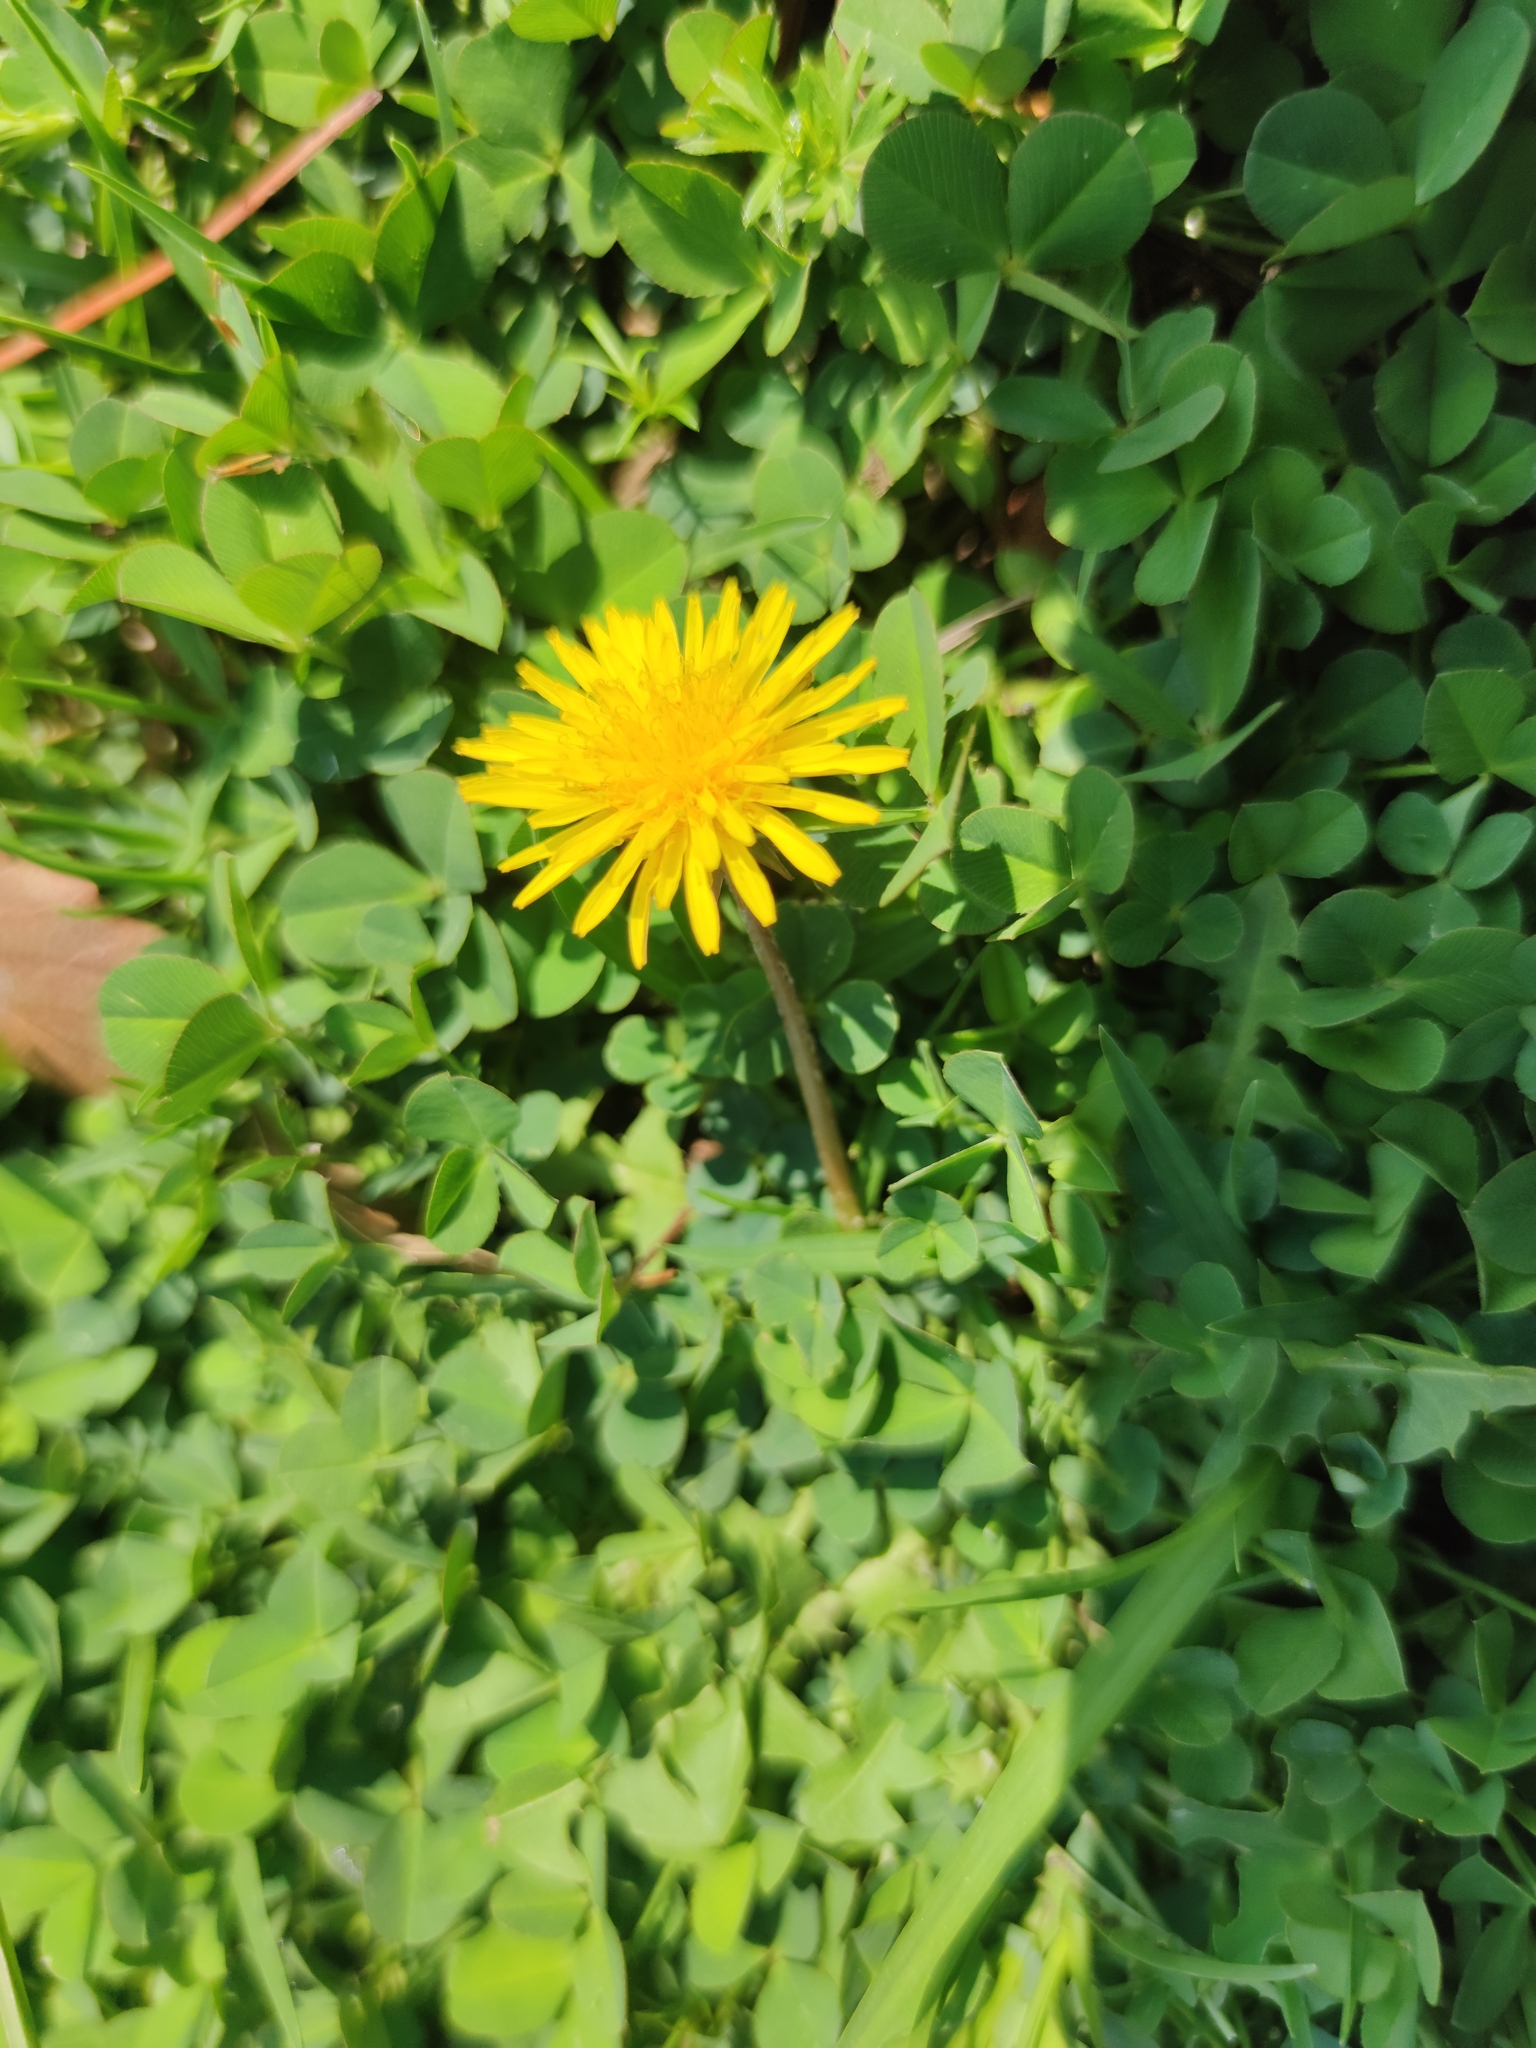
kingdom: Plantae
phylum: Tracheophyta
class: Magnoliopsida
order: Asterales
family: Asteraceae
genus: Taraxacum
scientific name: Taraxacum officinale
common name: Common dandelion
